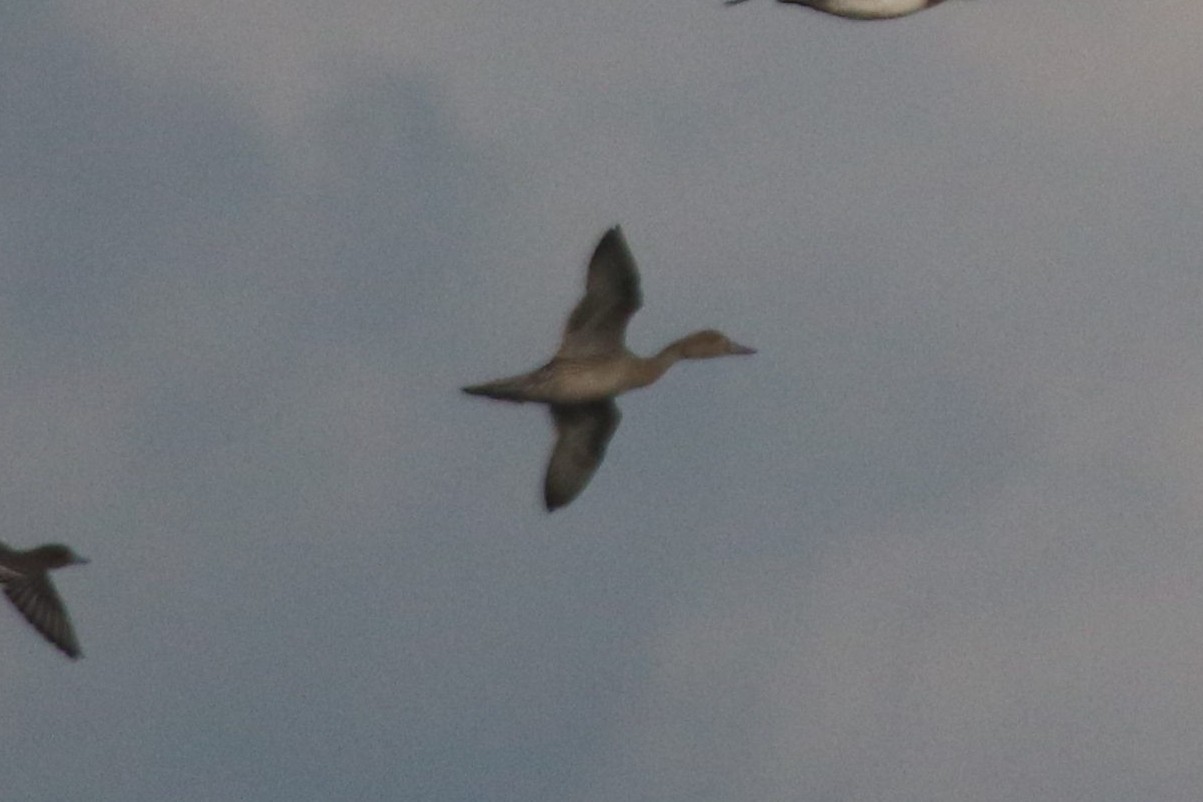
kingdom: Animalia
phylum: Chordata
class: Aves
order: Anseriformes
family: Anatidae
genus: Anas
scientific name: Anas acuta
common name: Northern pintail
